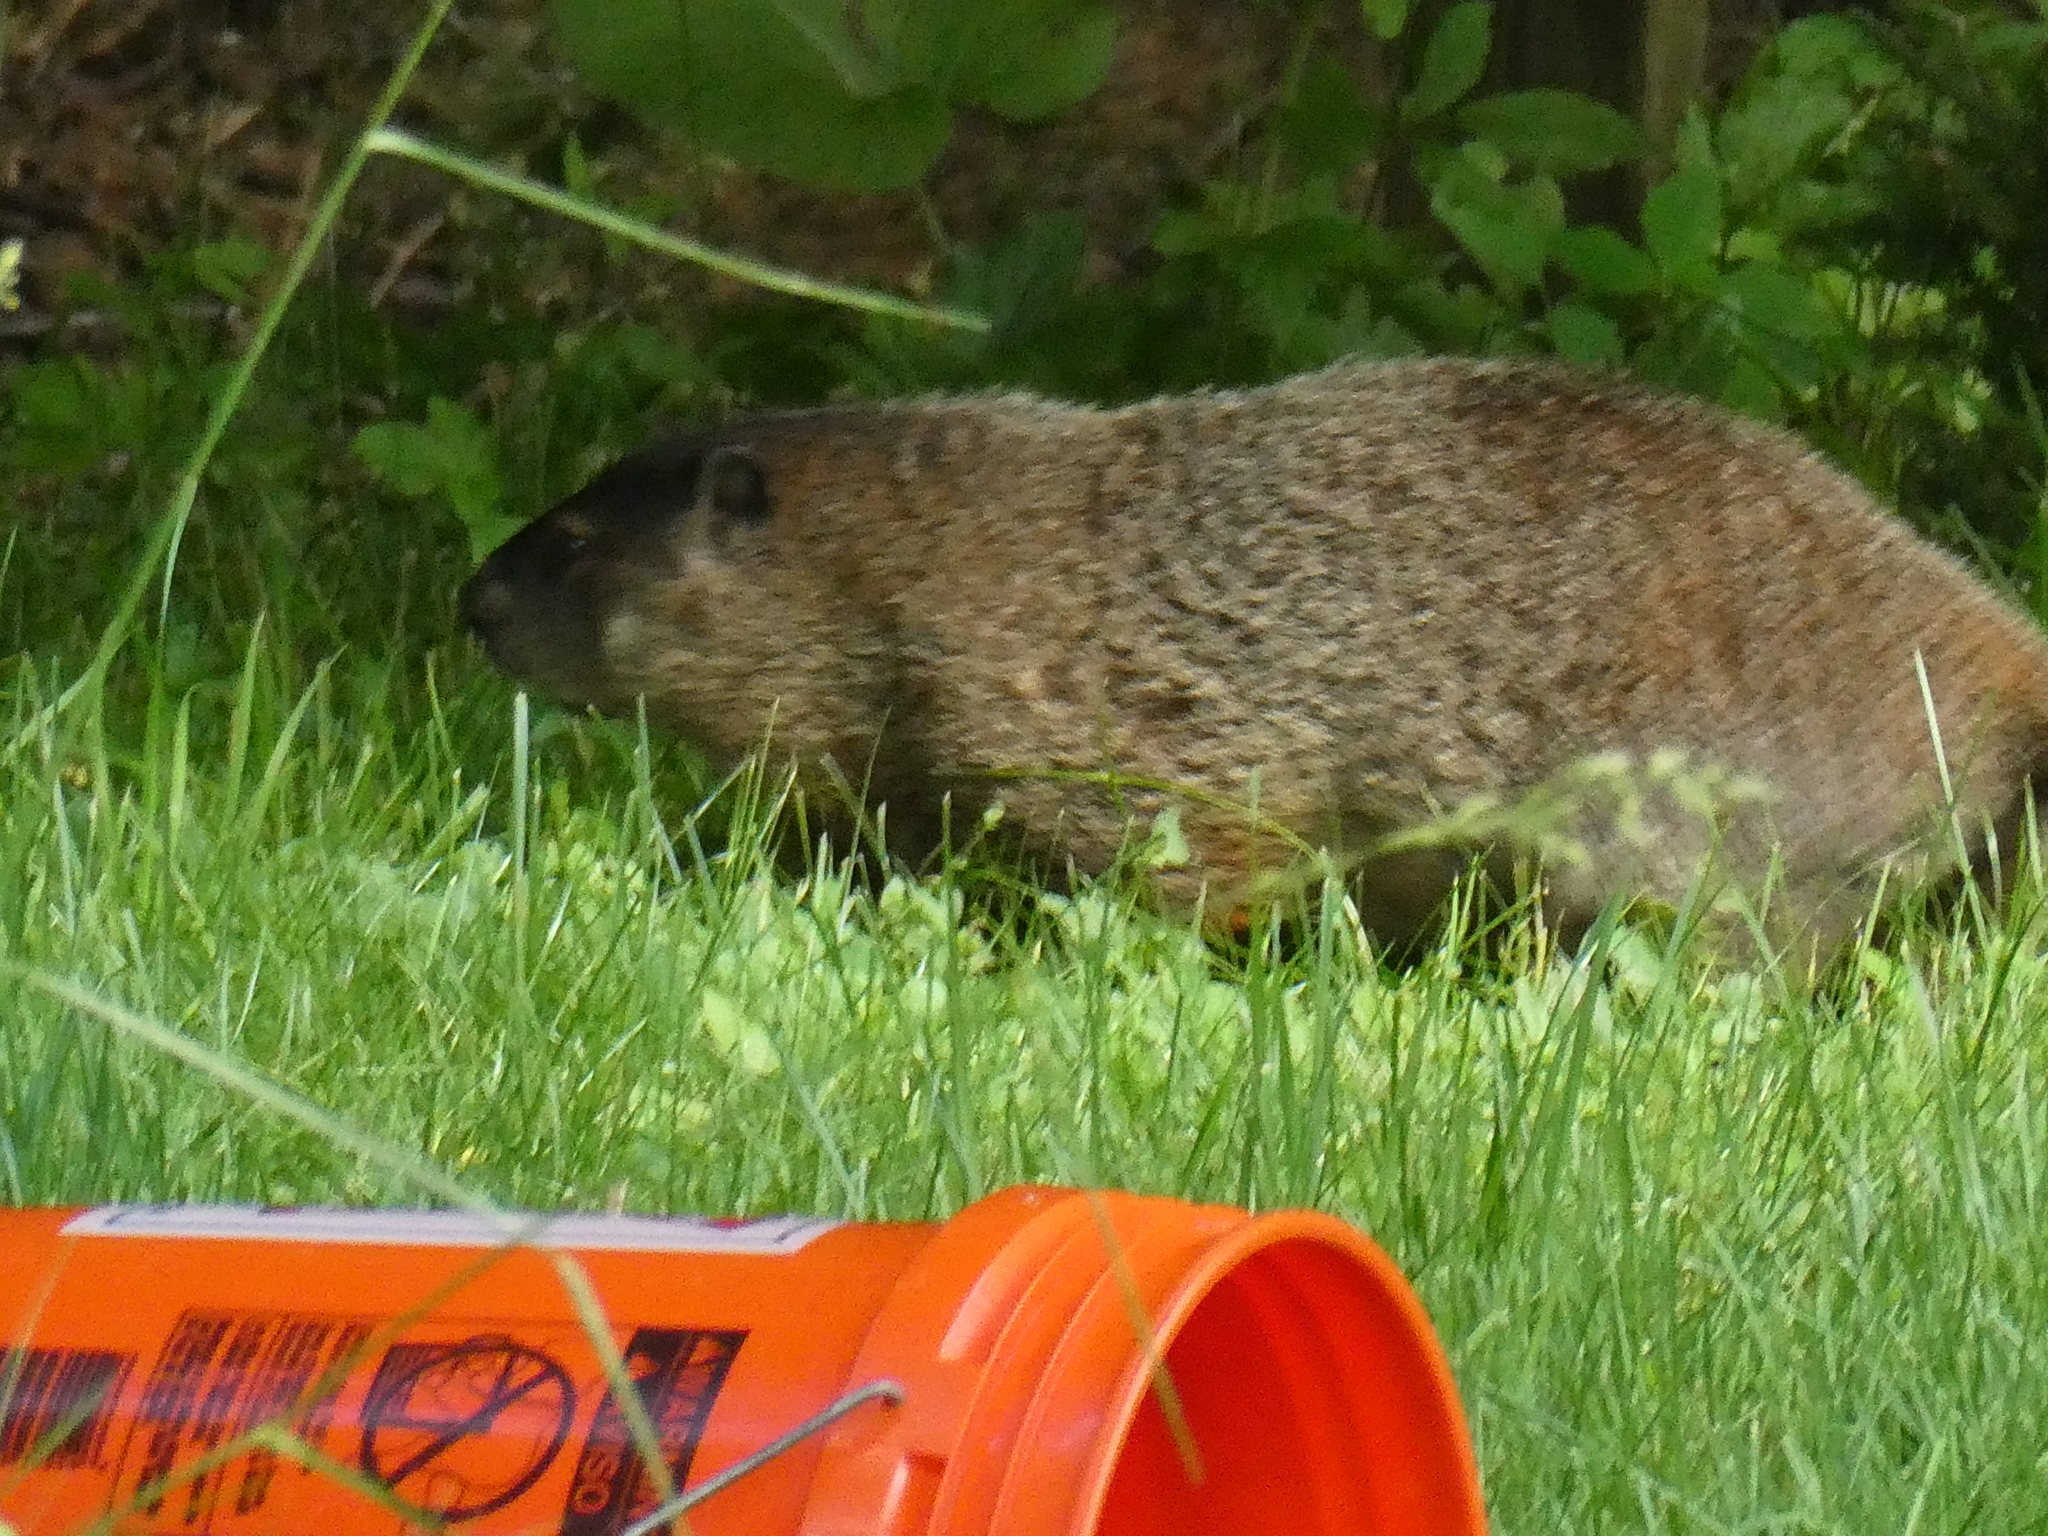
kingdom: Animalia
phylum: Chordata
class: Mammalia
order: Rodentia
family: Sciuridae
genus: Marmota
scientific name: Marmota monax
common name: Groundhog
